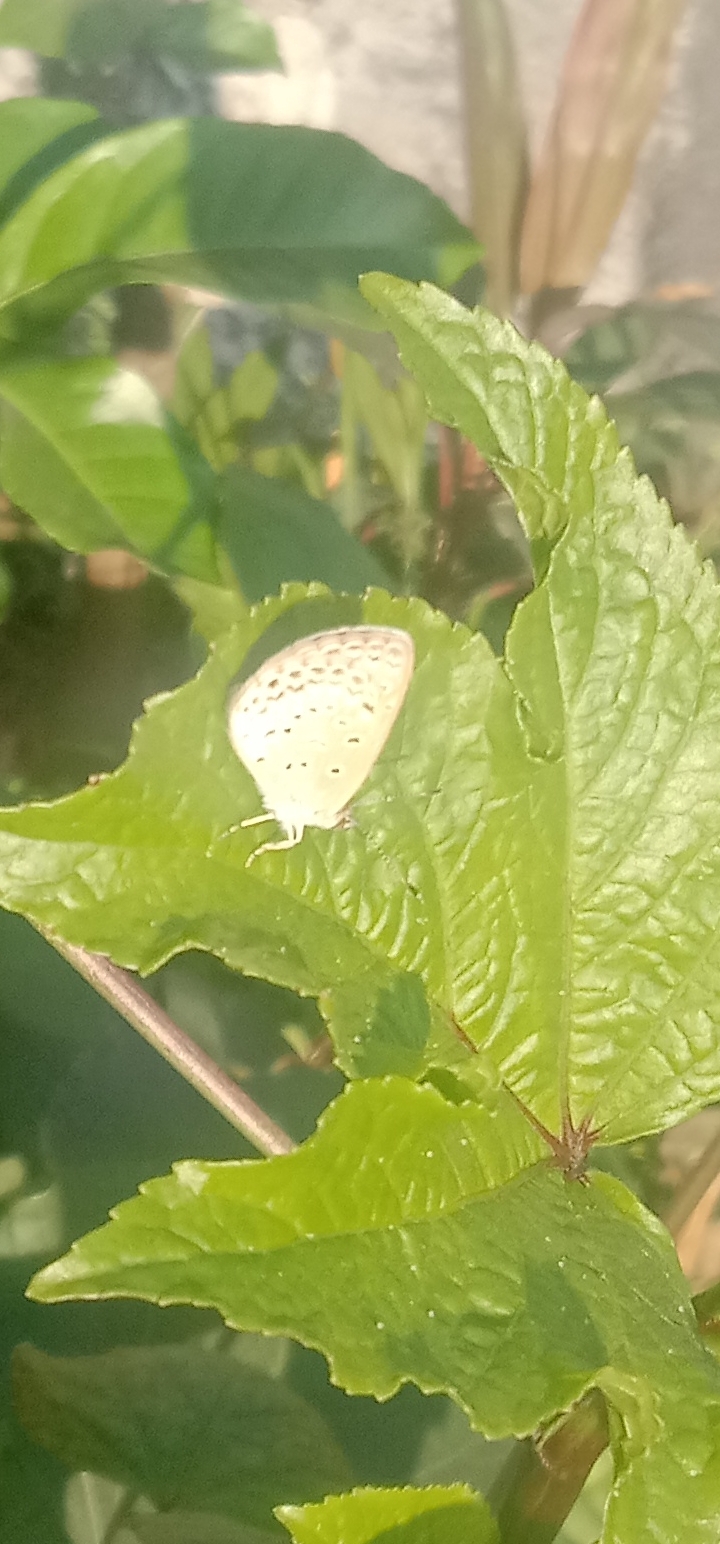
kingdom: Animalia
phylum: Arthropoda
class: Insecta
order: Lepidoptera
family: Lycaenidae
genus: Pseudozizeeria
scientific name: Pseudozizeeria maha
